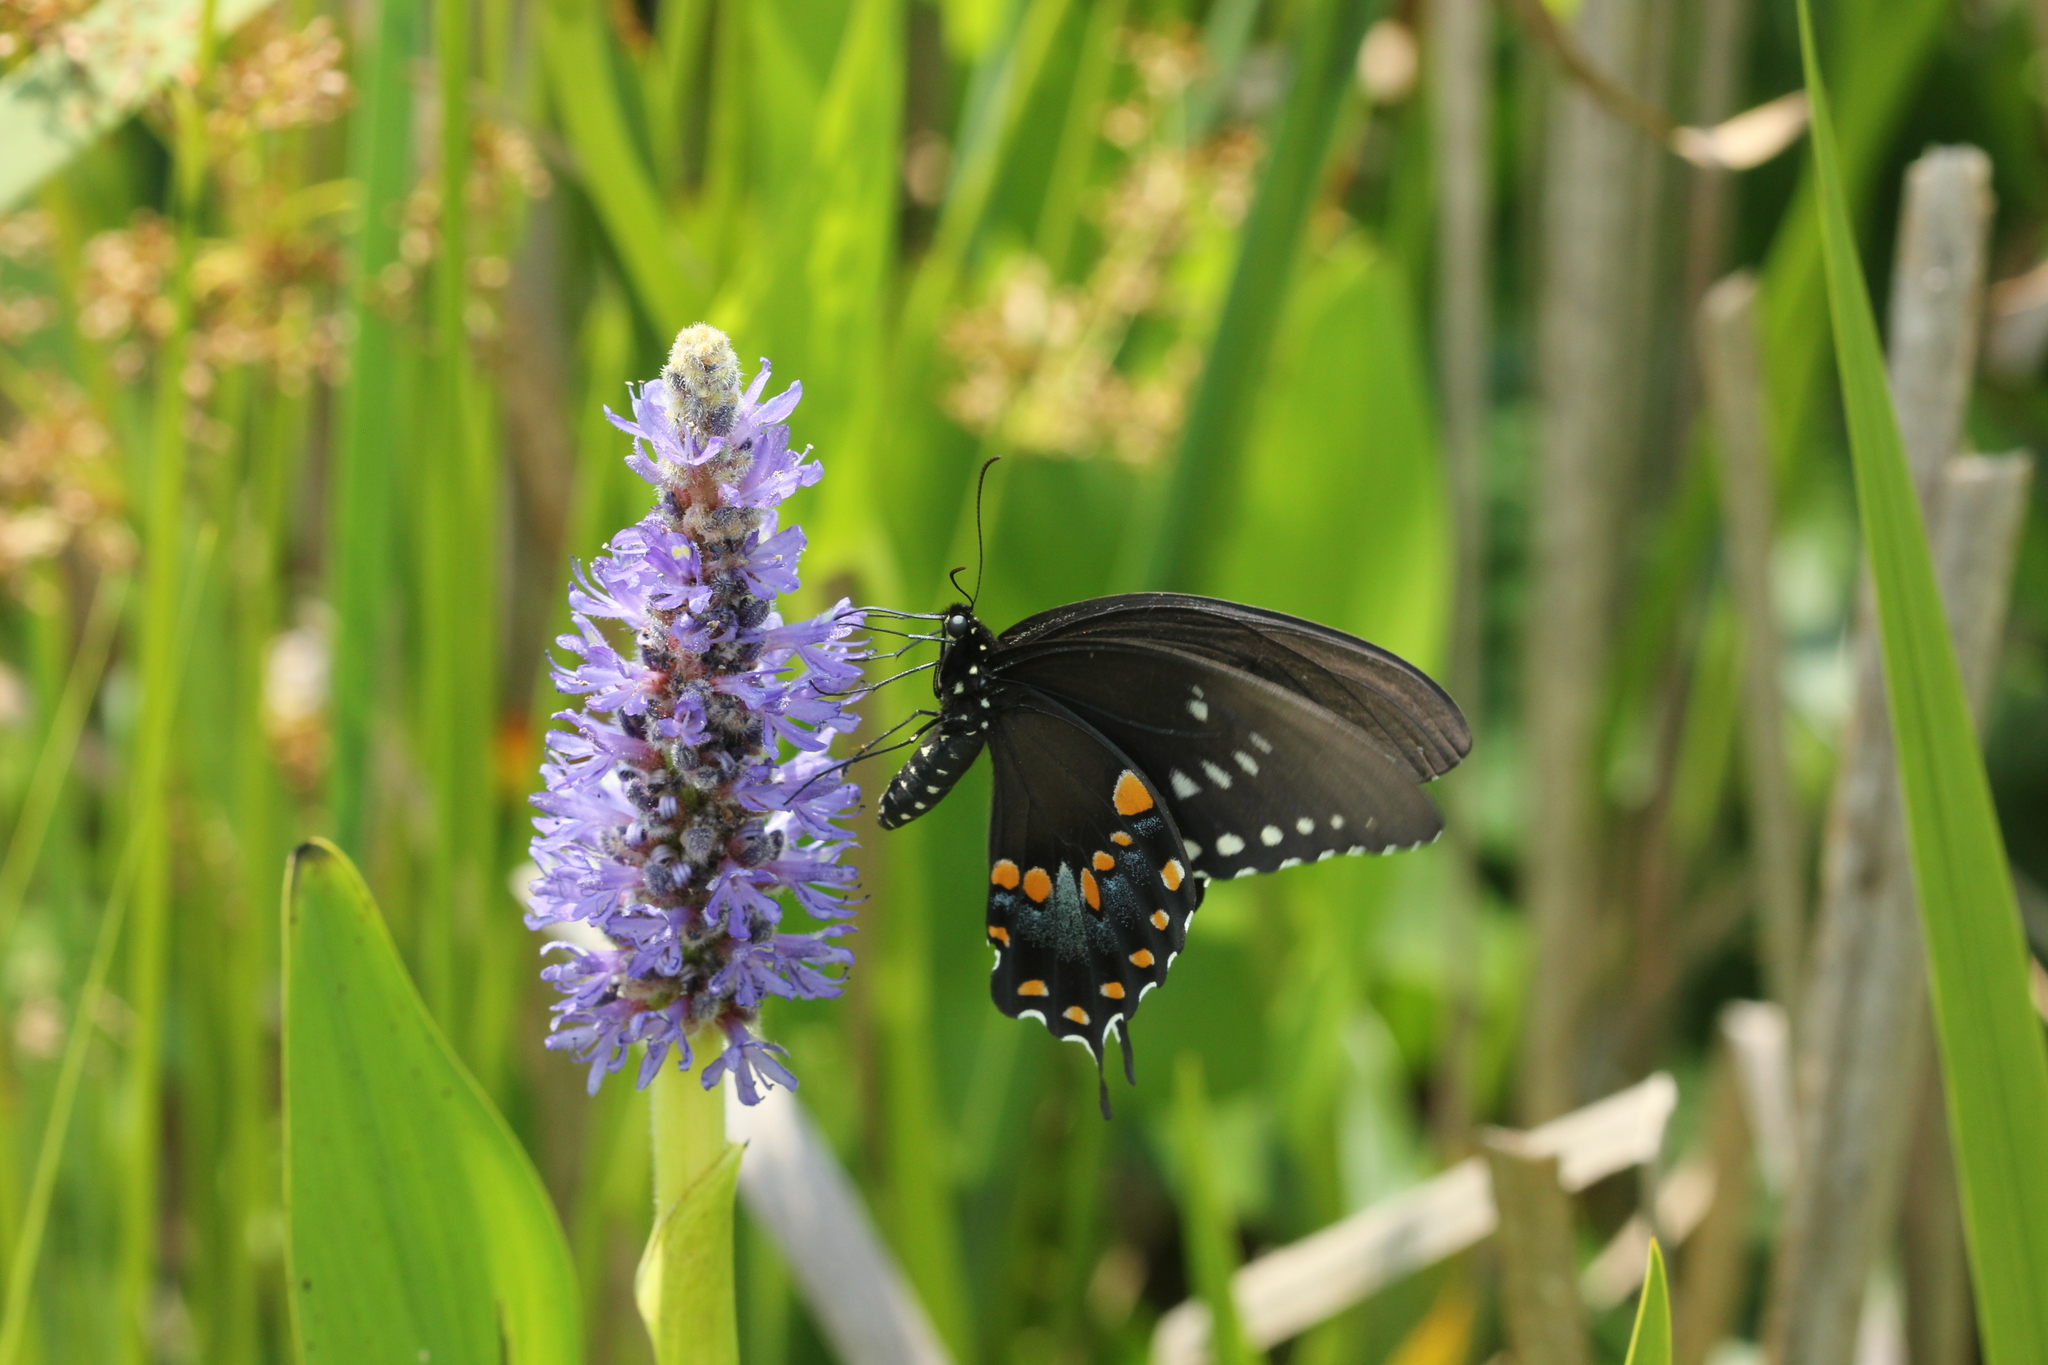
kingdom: Animalia
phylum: Arthropoda
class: Insecta
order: Lepidoptera
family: Papilionidae
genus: Papilio
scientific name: Papilio troilus
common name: Spicebush swallowtail
